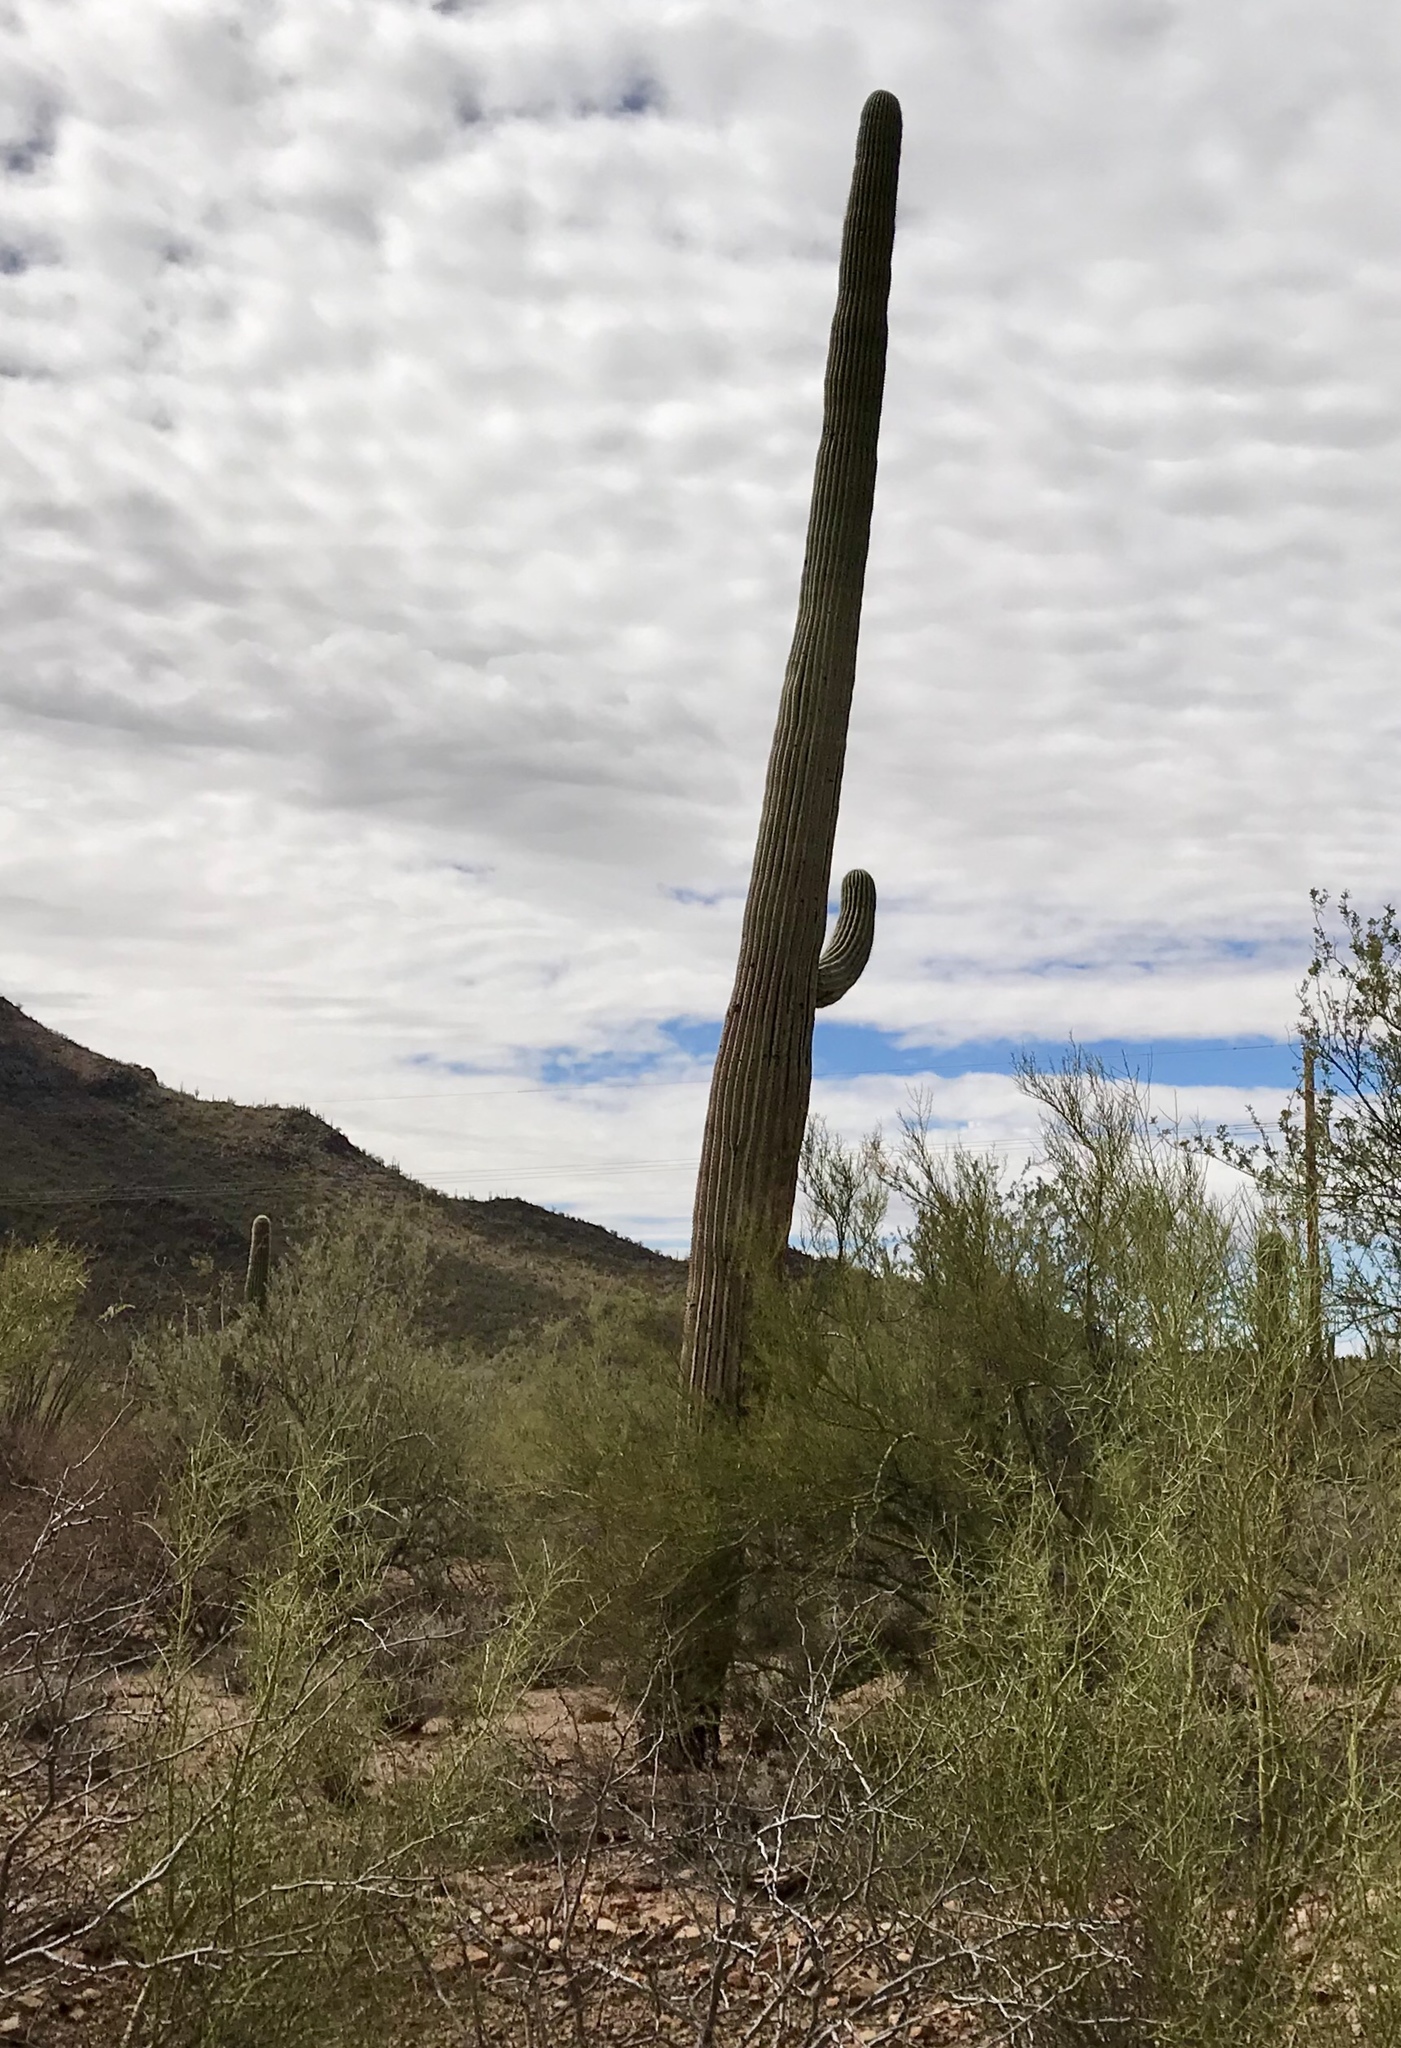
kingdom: Plantae
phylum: Tracheophyta
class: Magnoliopsida
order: Caryophyllales
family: Cactaceae
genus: Carnegiea
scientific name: Carnegiea gigantea
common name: Saguaro
